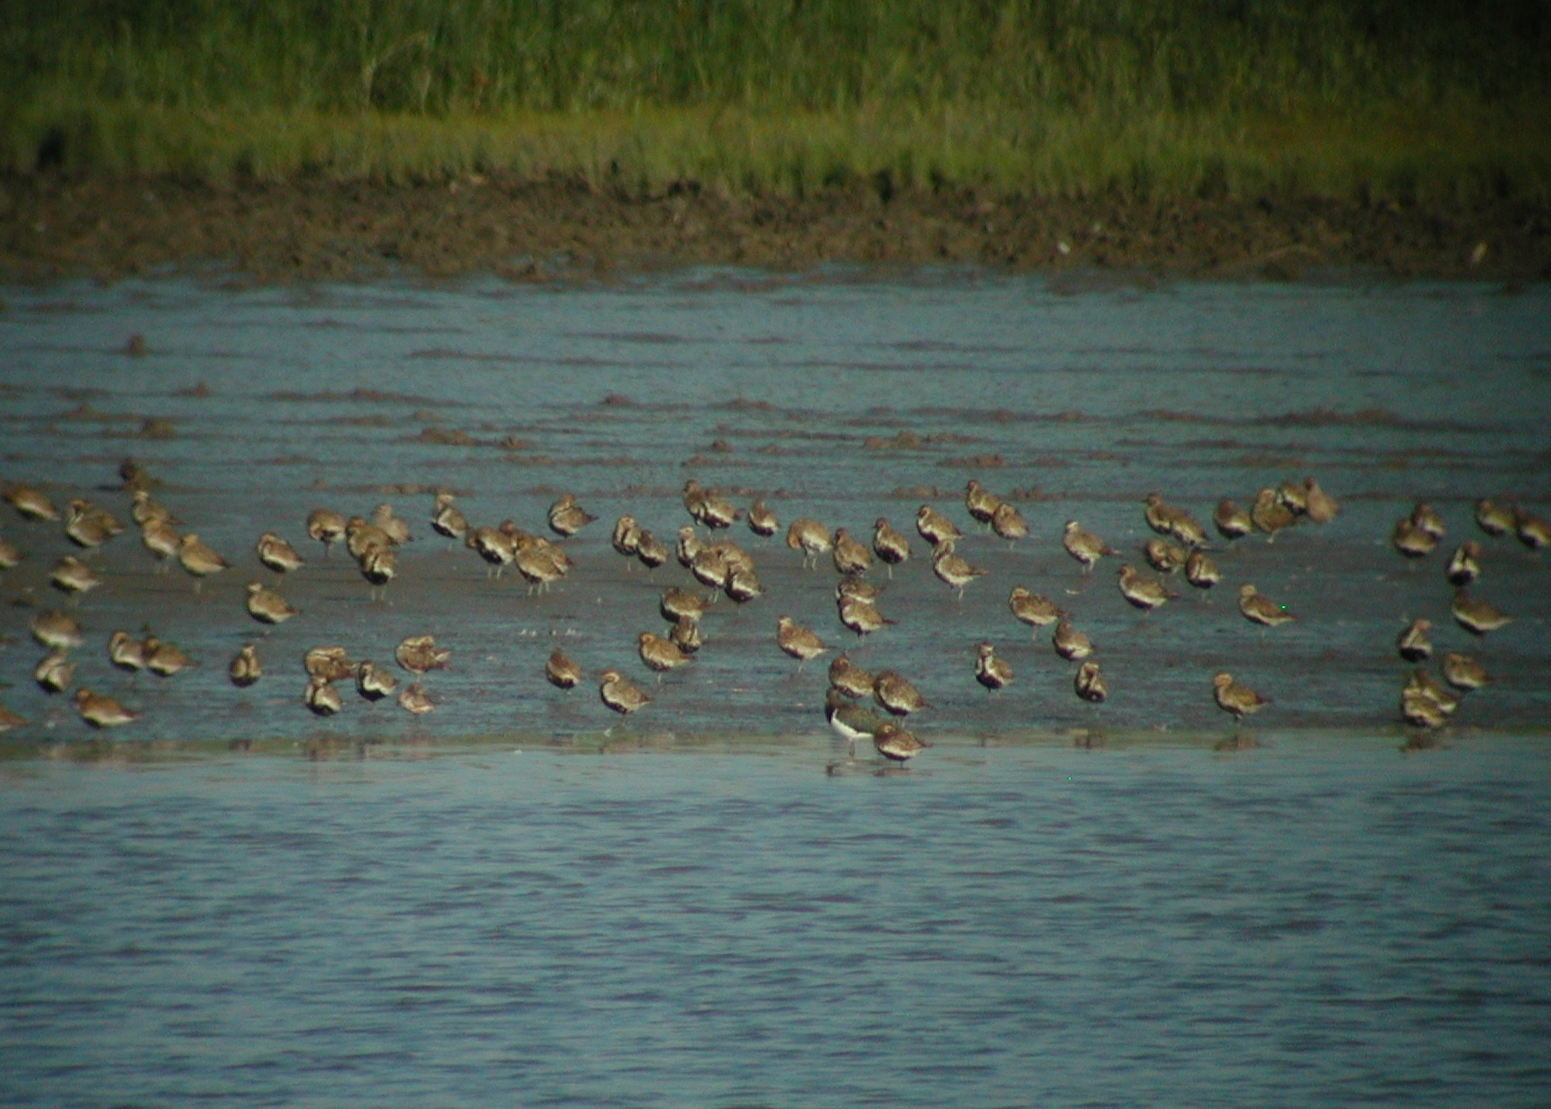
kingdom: Animalia
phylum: Chordata
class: Aves
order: Charadriiformes
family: Charadriidae
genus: Pluvialis
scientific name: Pluvialis apricaria
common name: European golden plover
